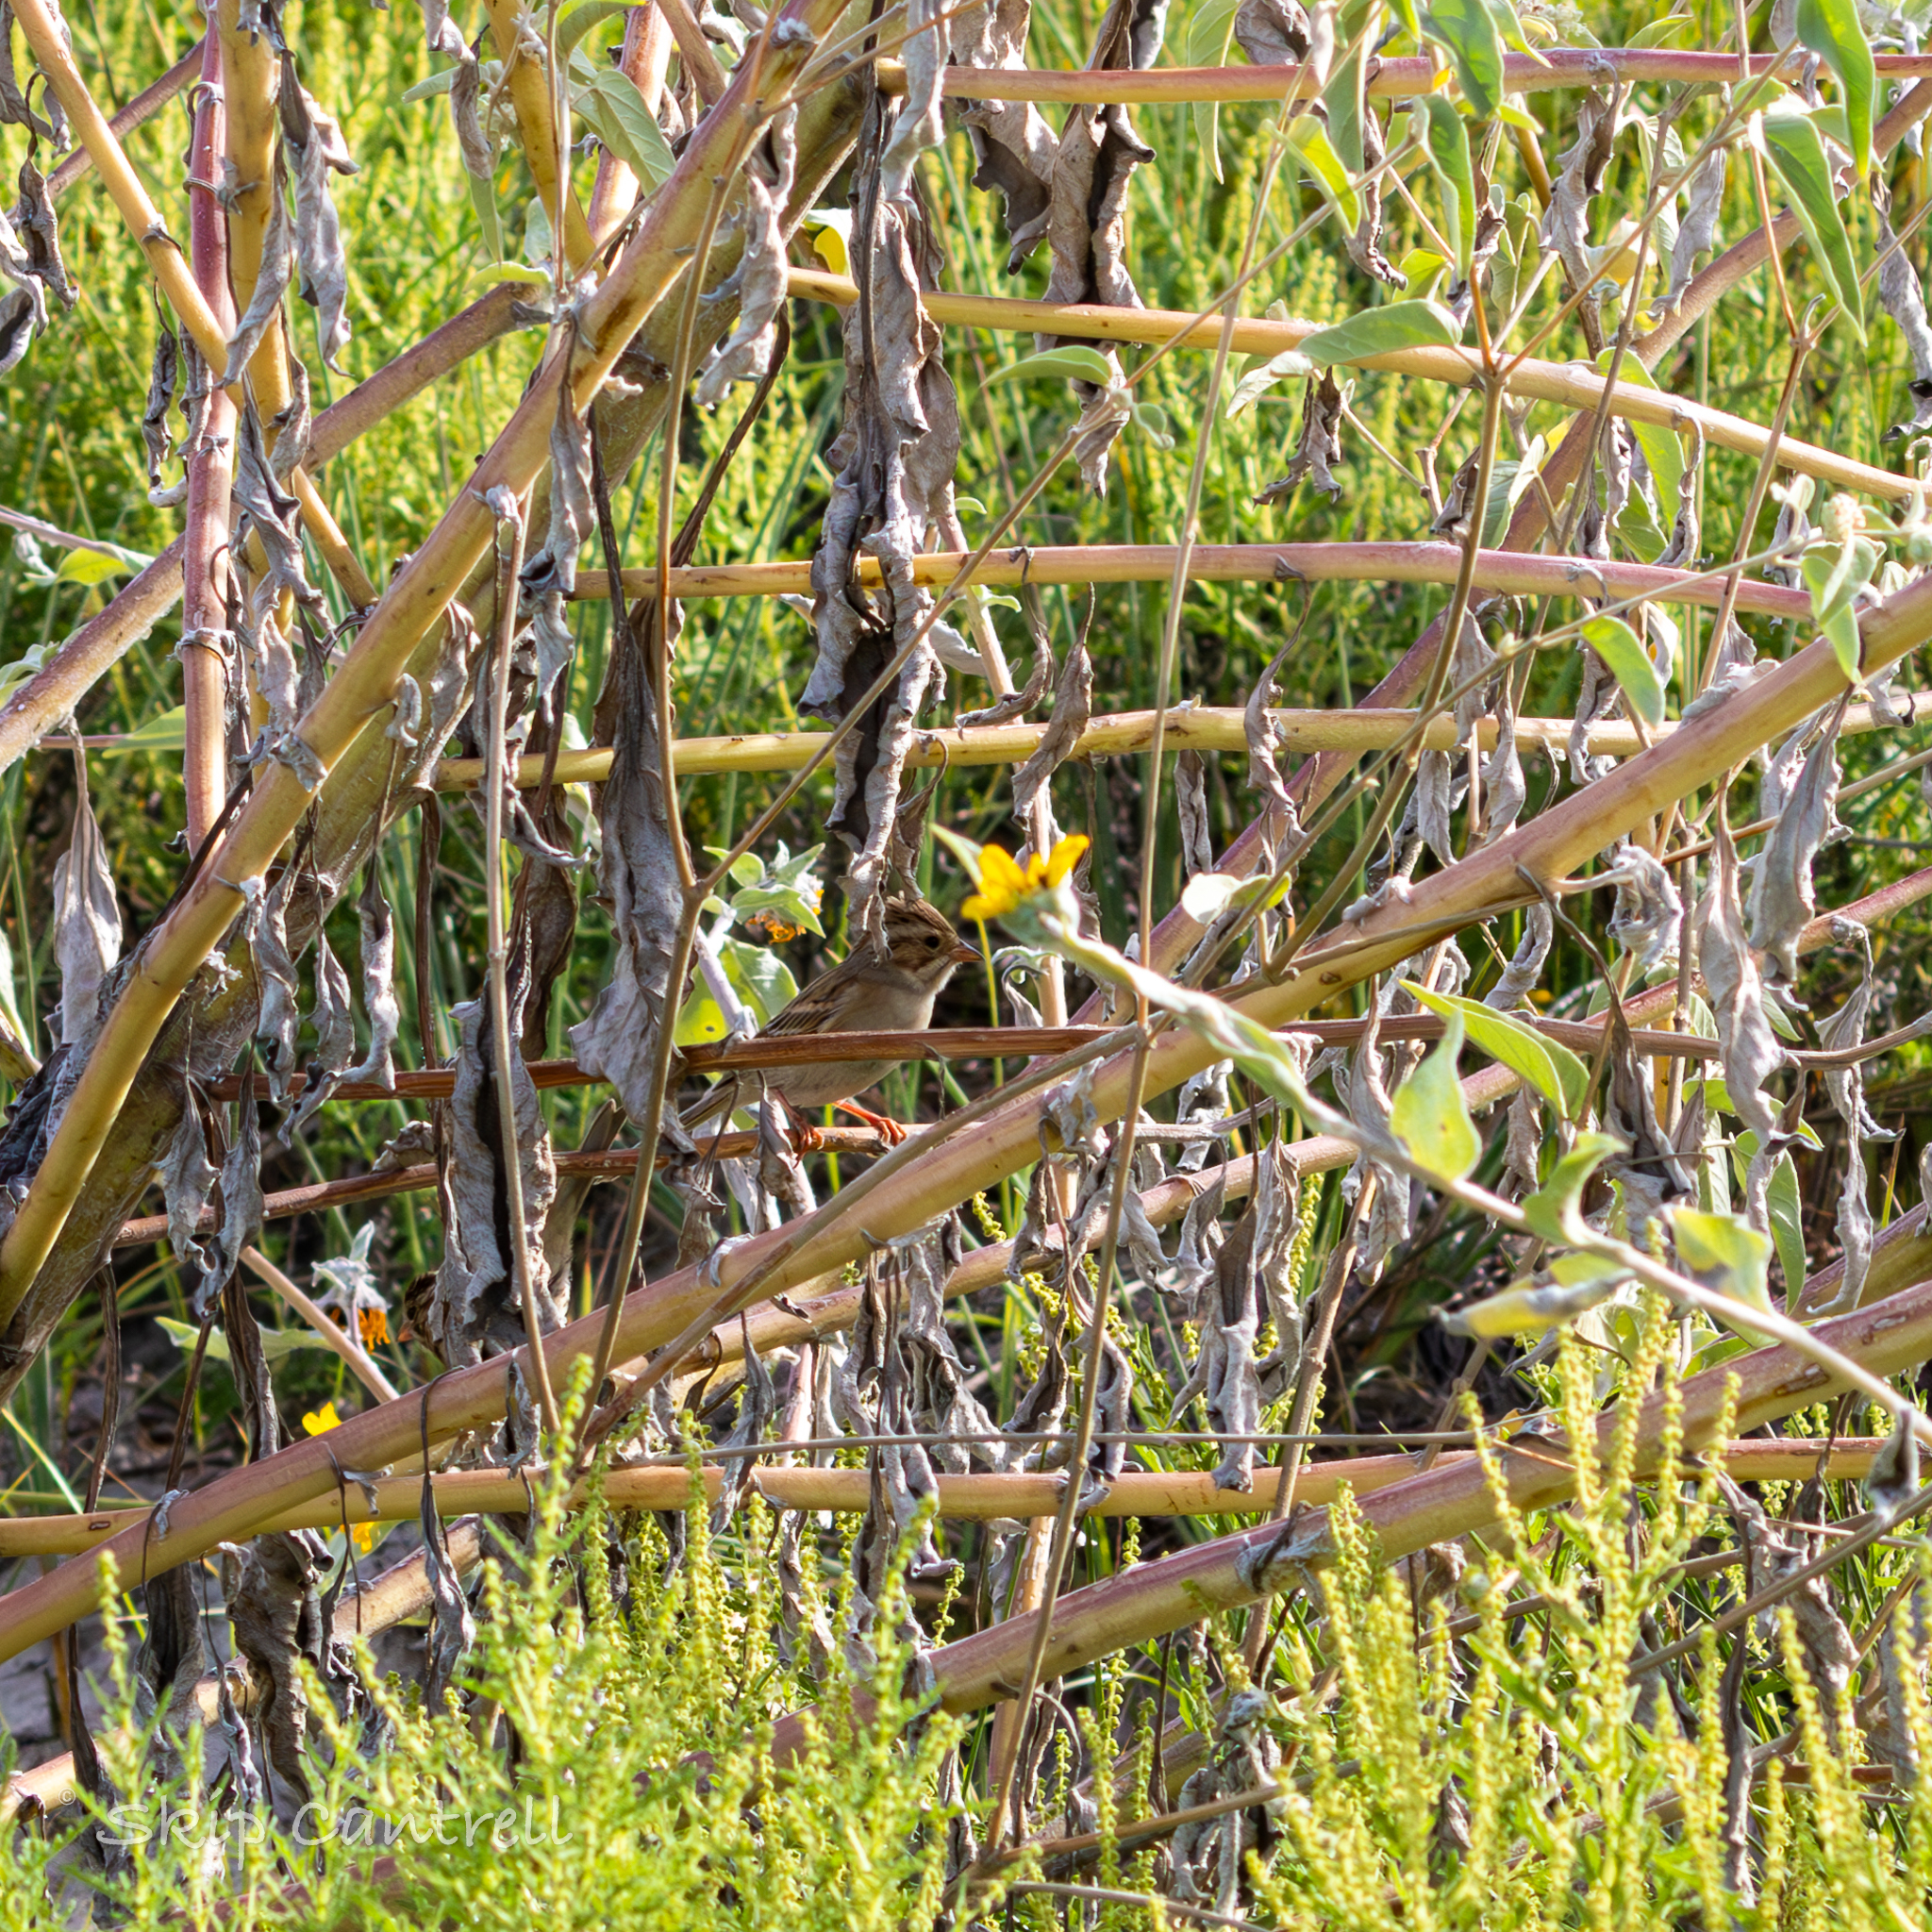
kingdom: Animalia
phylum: Chordata
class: Aves
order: Passeriformes
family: Passerellidae
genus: Spizella
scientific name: Spizella pallida
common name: Clay-colored sparrow
